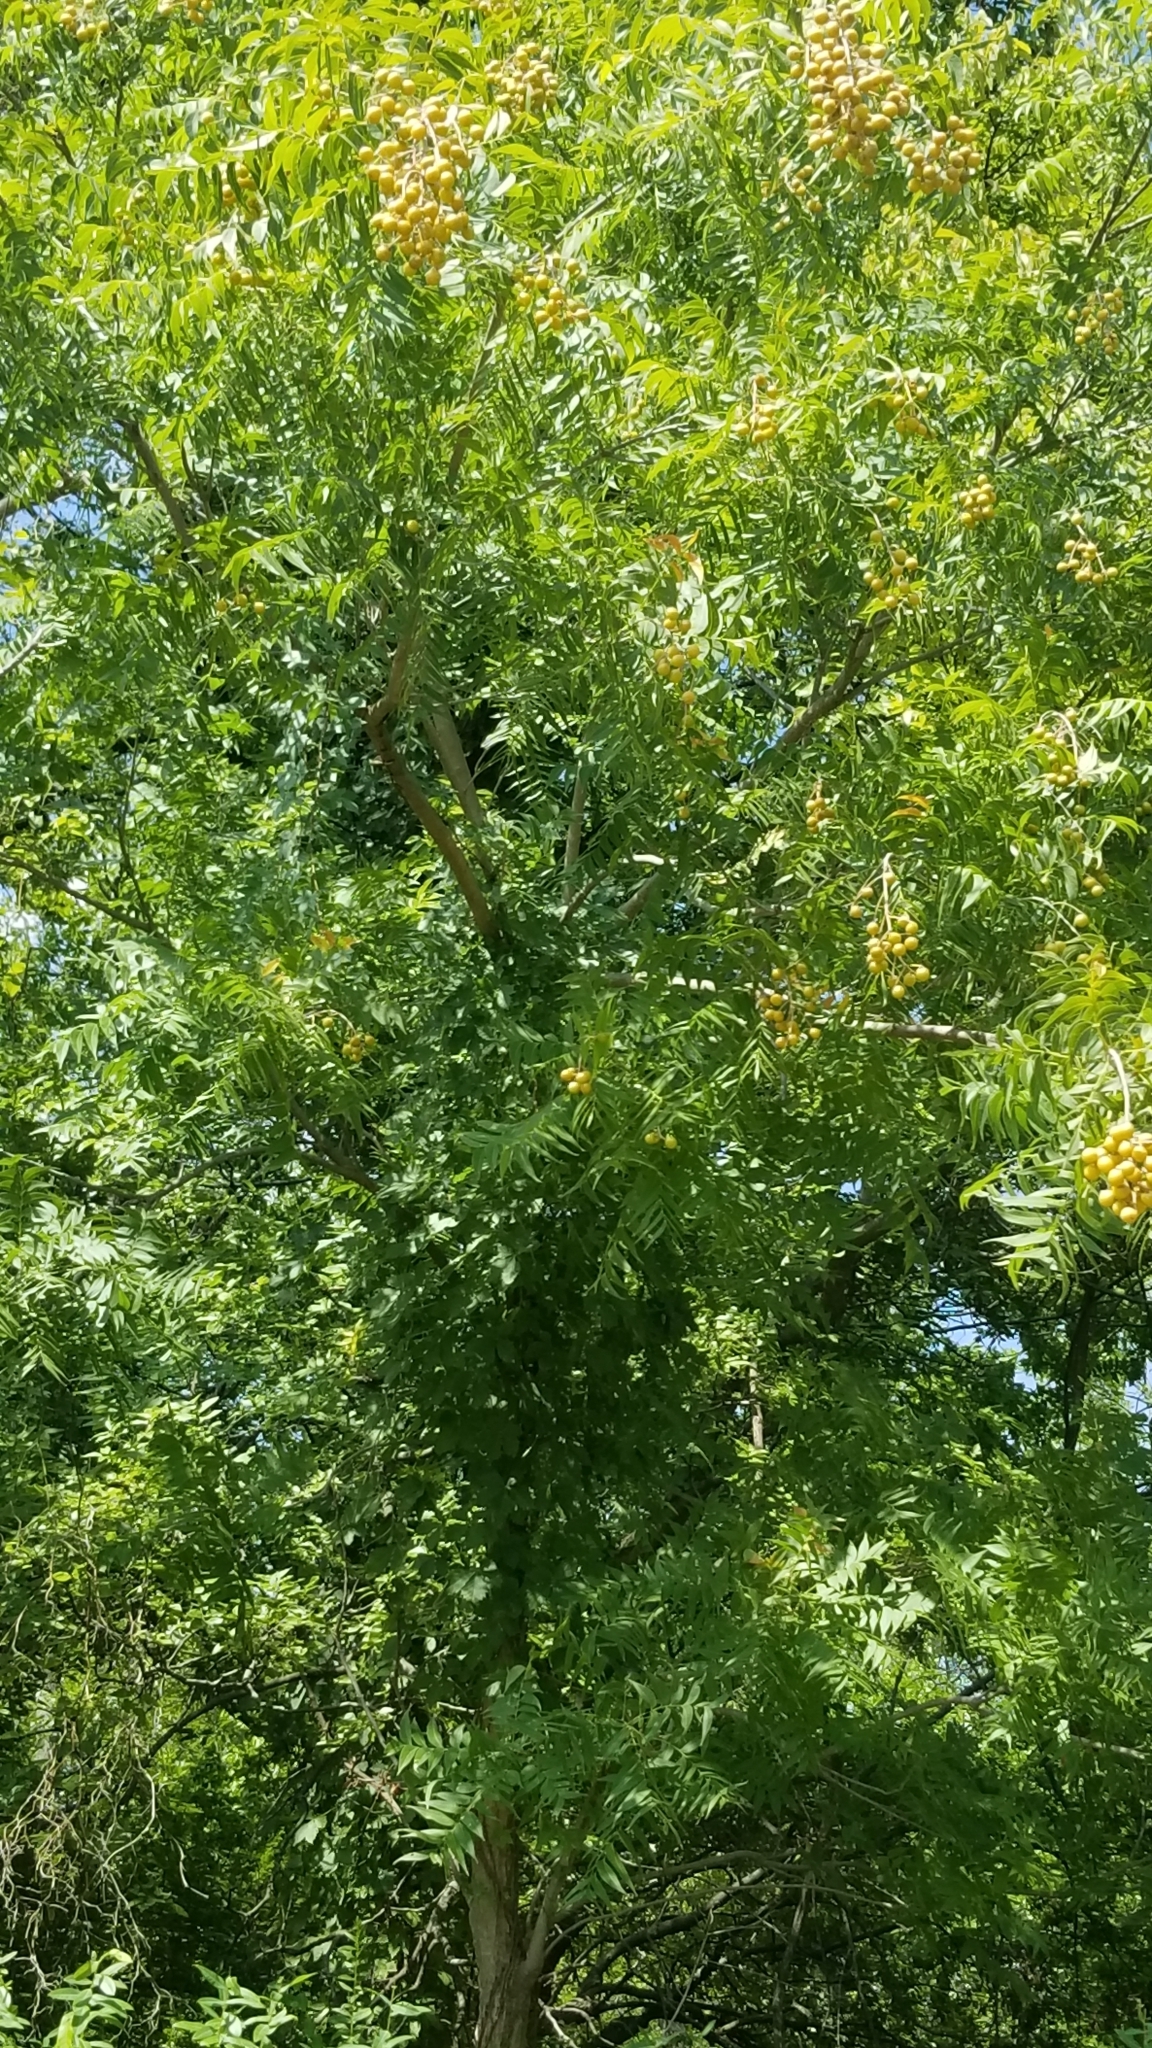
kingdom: Plantae
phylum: Tracheophyta
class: Magnoliopsida
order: Sapindales
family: Sapindaceae
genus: Sapindus
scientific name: Sapindus drummondii
